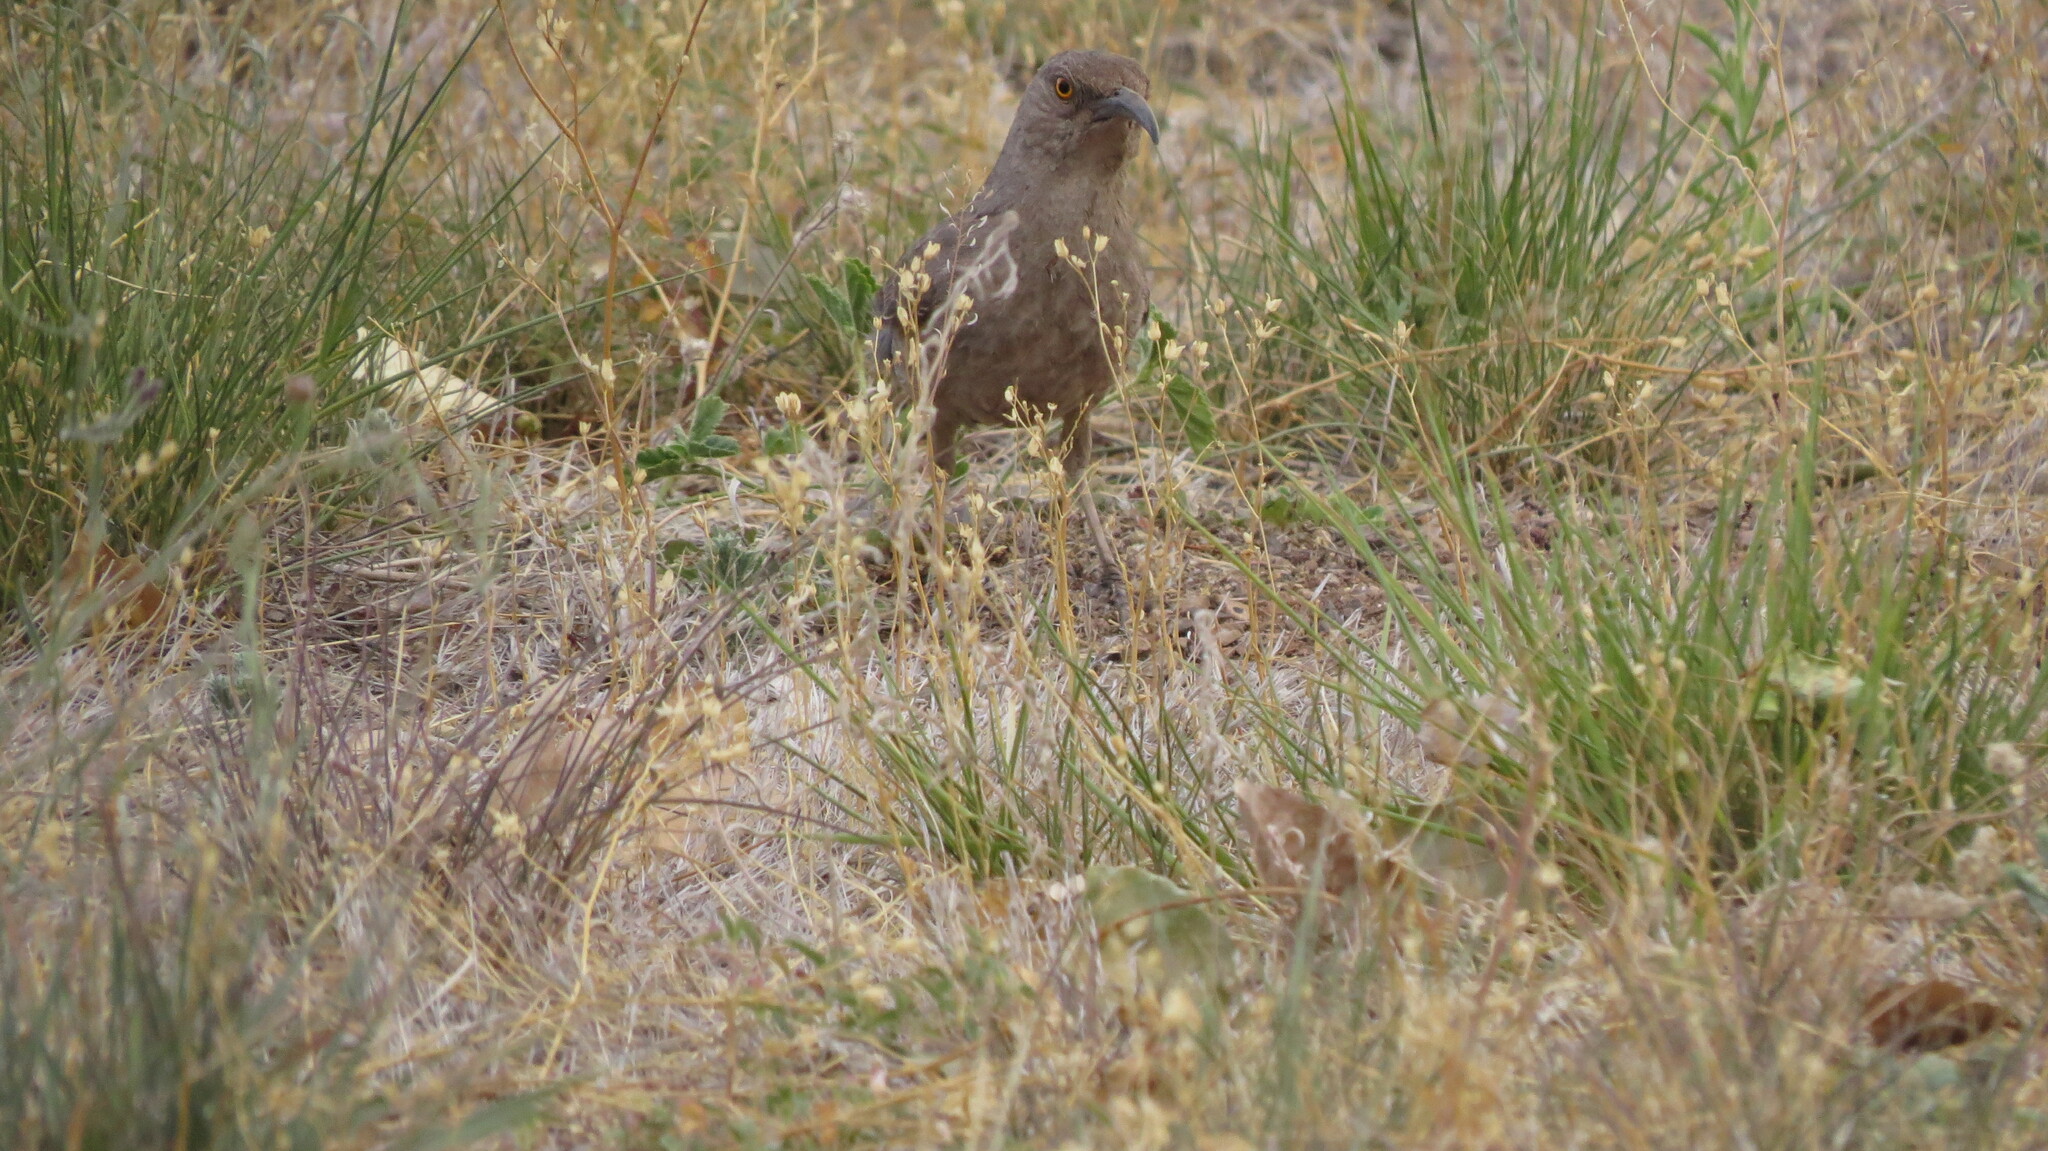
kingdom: Animalia
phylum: Chordata
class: Aves
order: Passeriformes
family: Mimidae
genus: Toxostoma
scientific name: Toxostoma curvirostre
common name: Curve-billed thrasher
